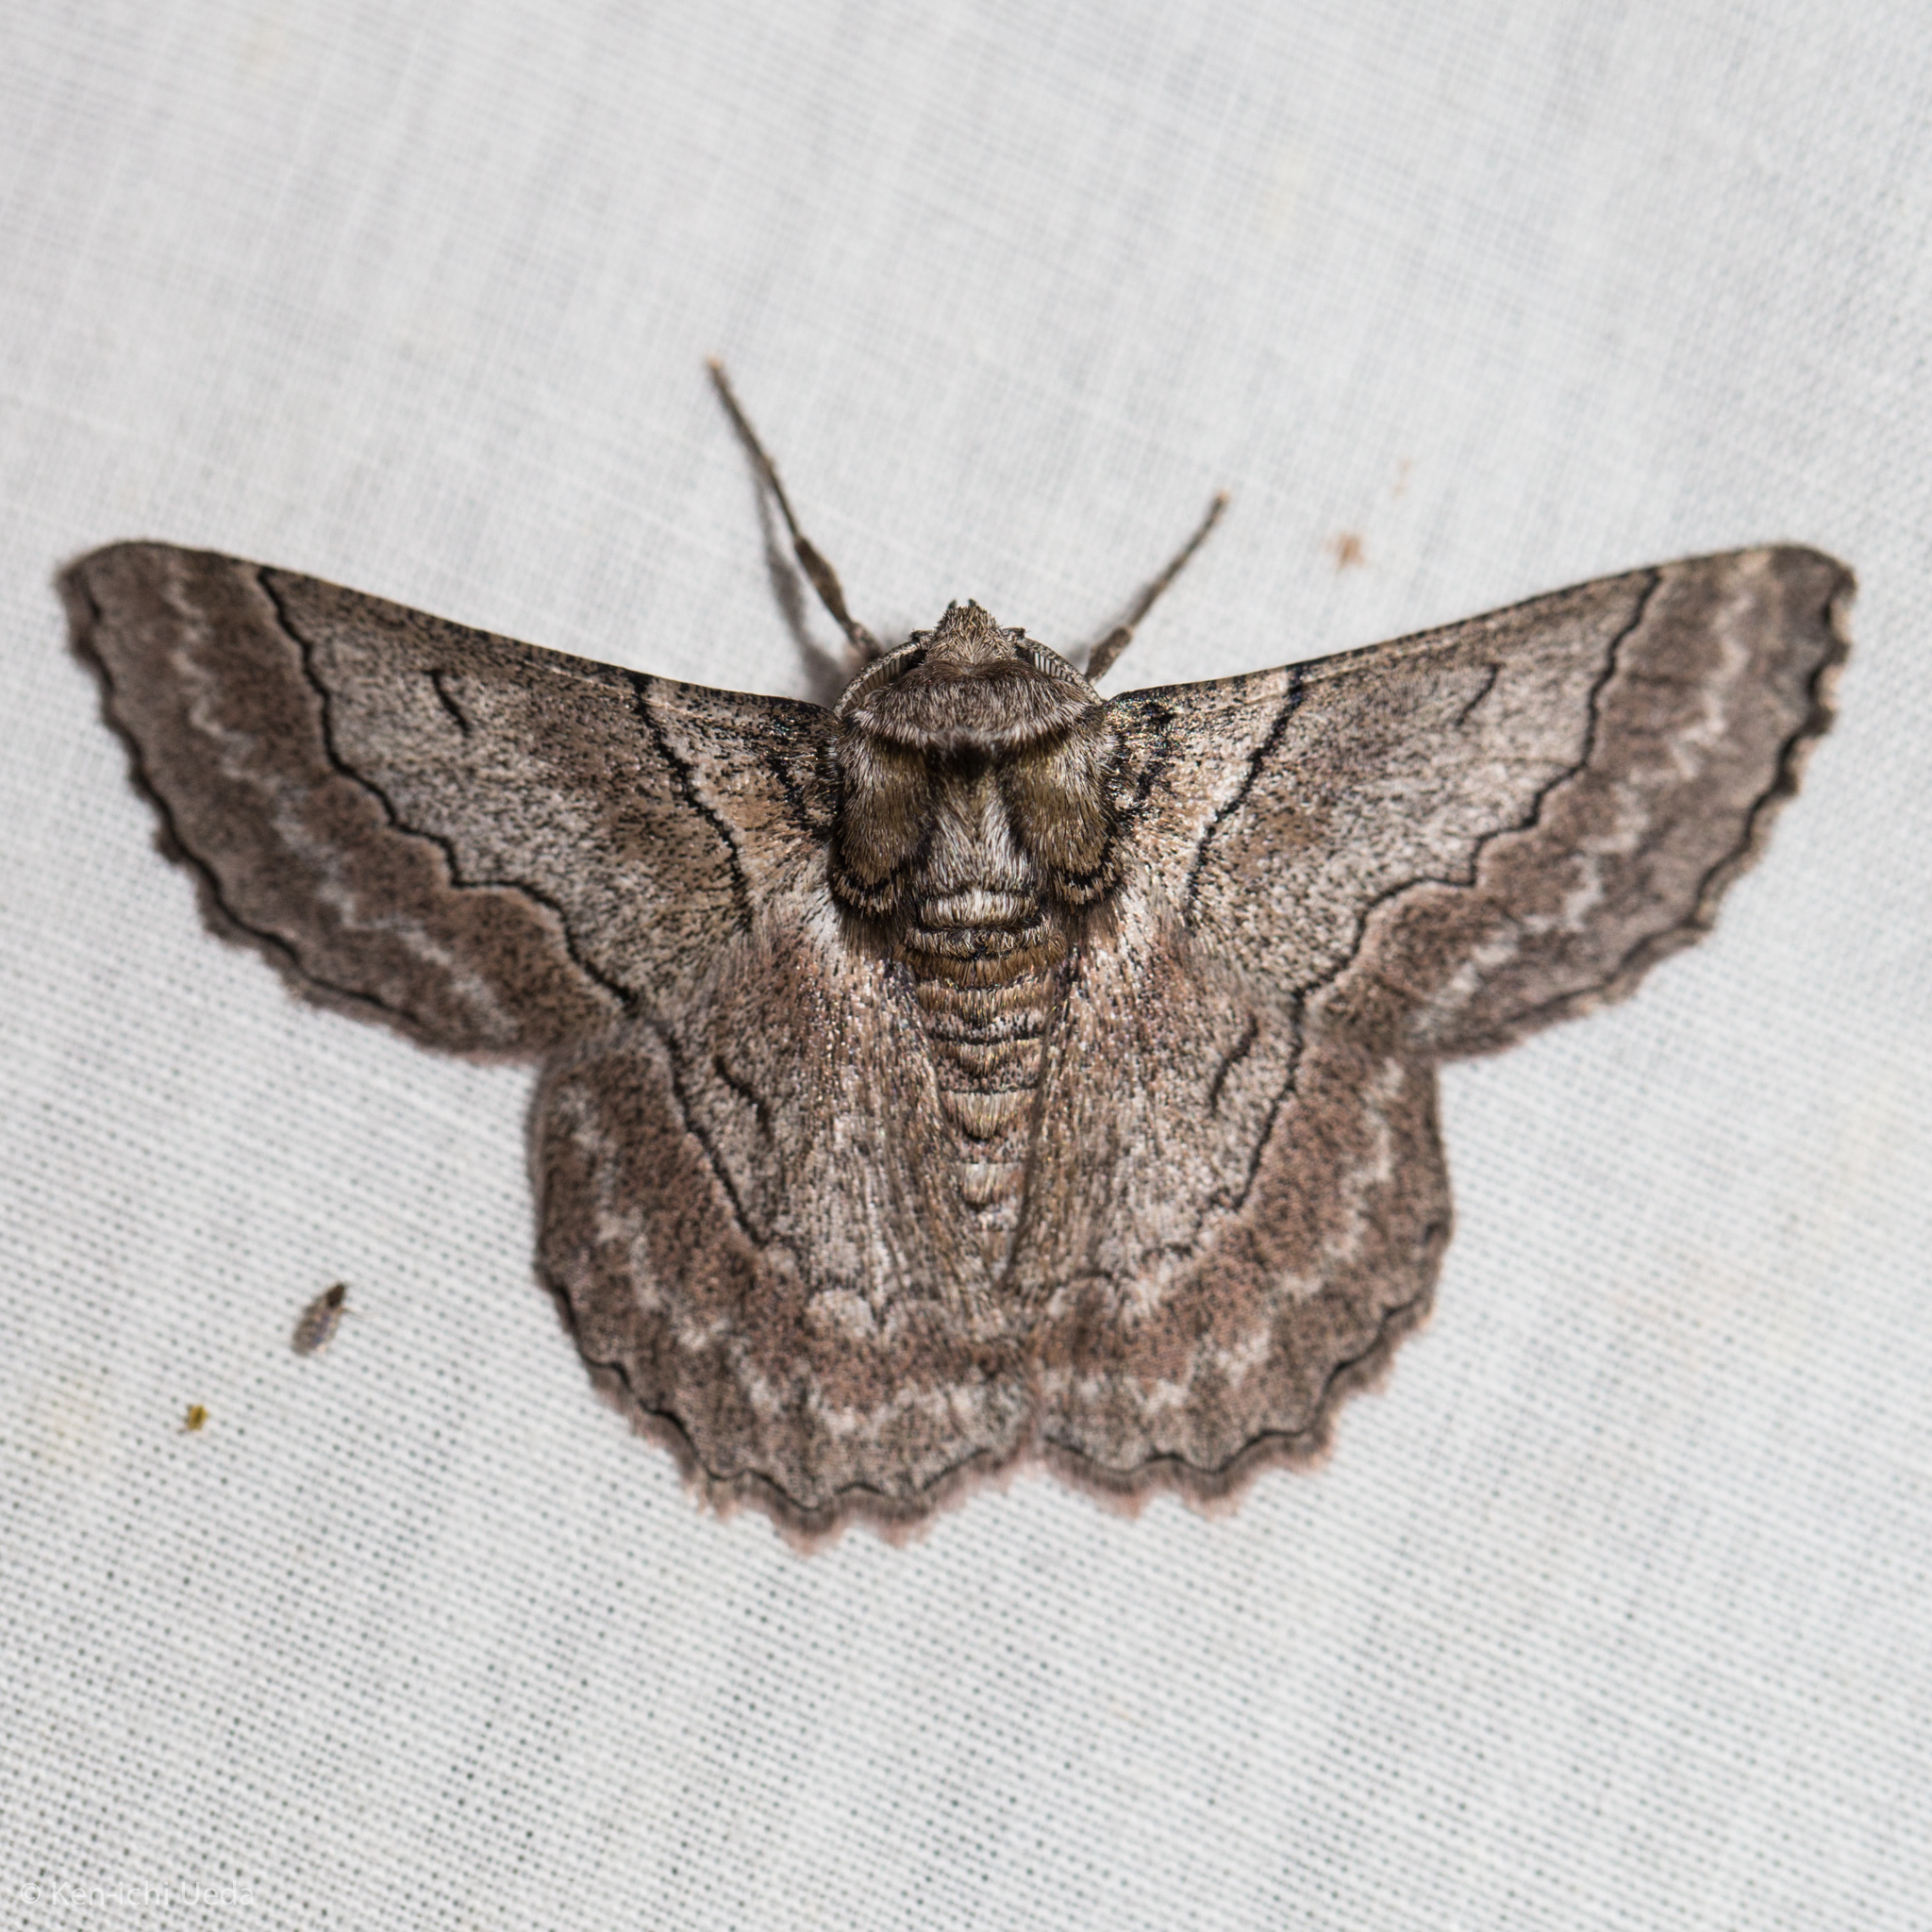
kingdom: Animalia
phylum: Arthropoda
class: Insecta
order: Lepidoptera
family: Geometridae
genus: Hypobapta
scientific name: Hypobapta tachyhalotaria
